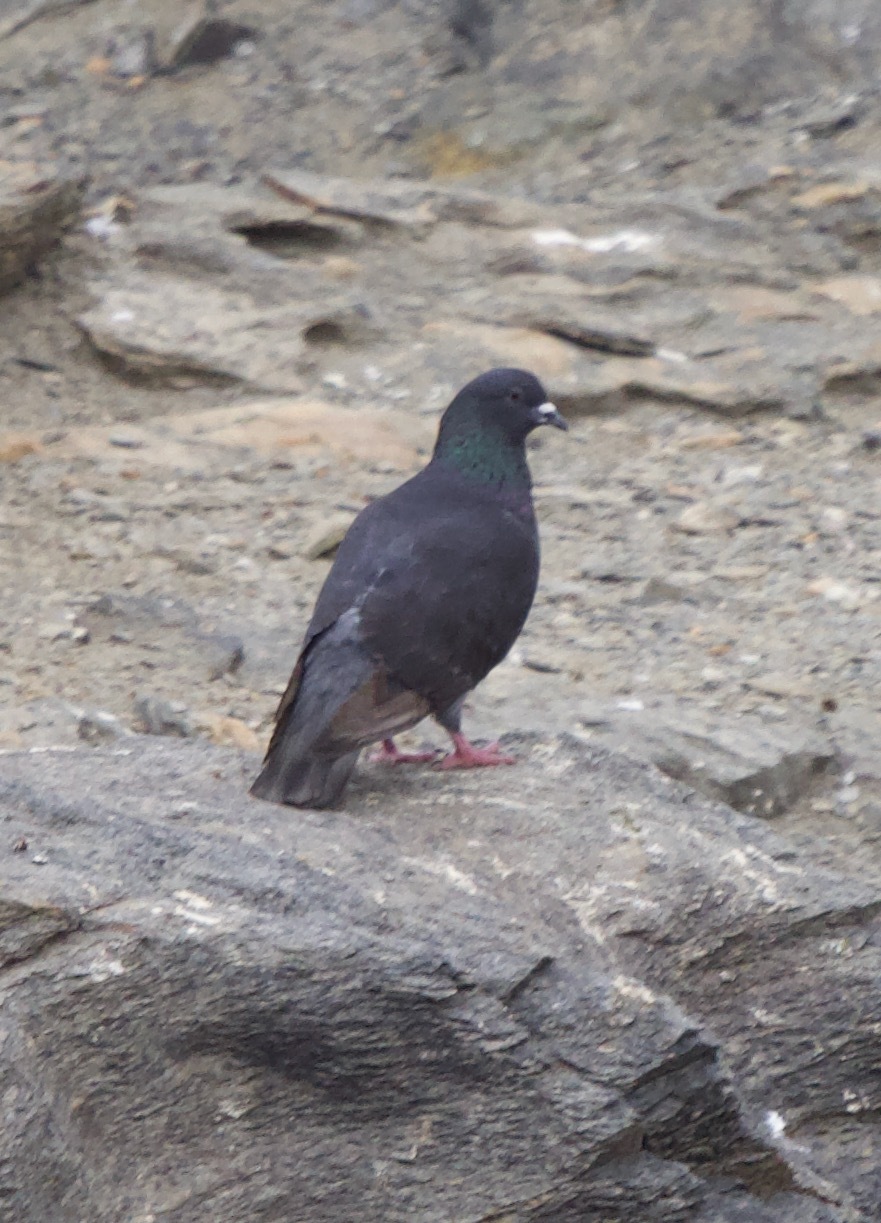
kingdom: Animalia
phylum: Chordata
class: Aves
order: Columbiformes
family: Columbidae
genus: Columba
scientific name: Columba livia
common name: Rock pigeon
